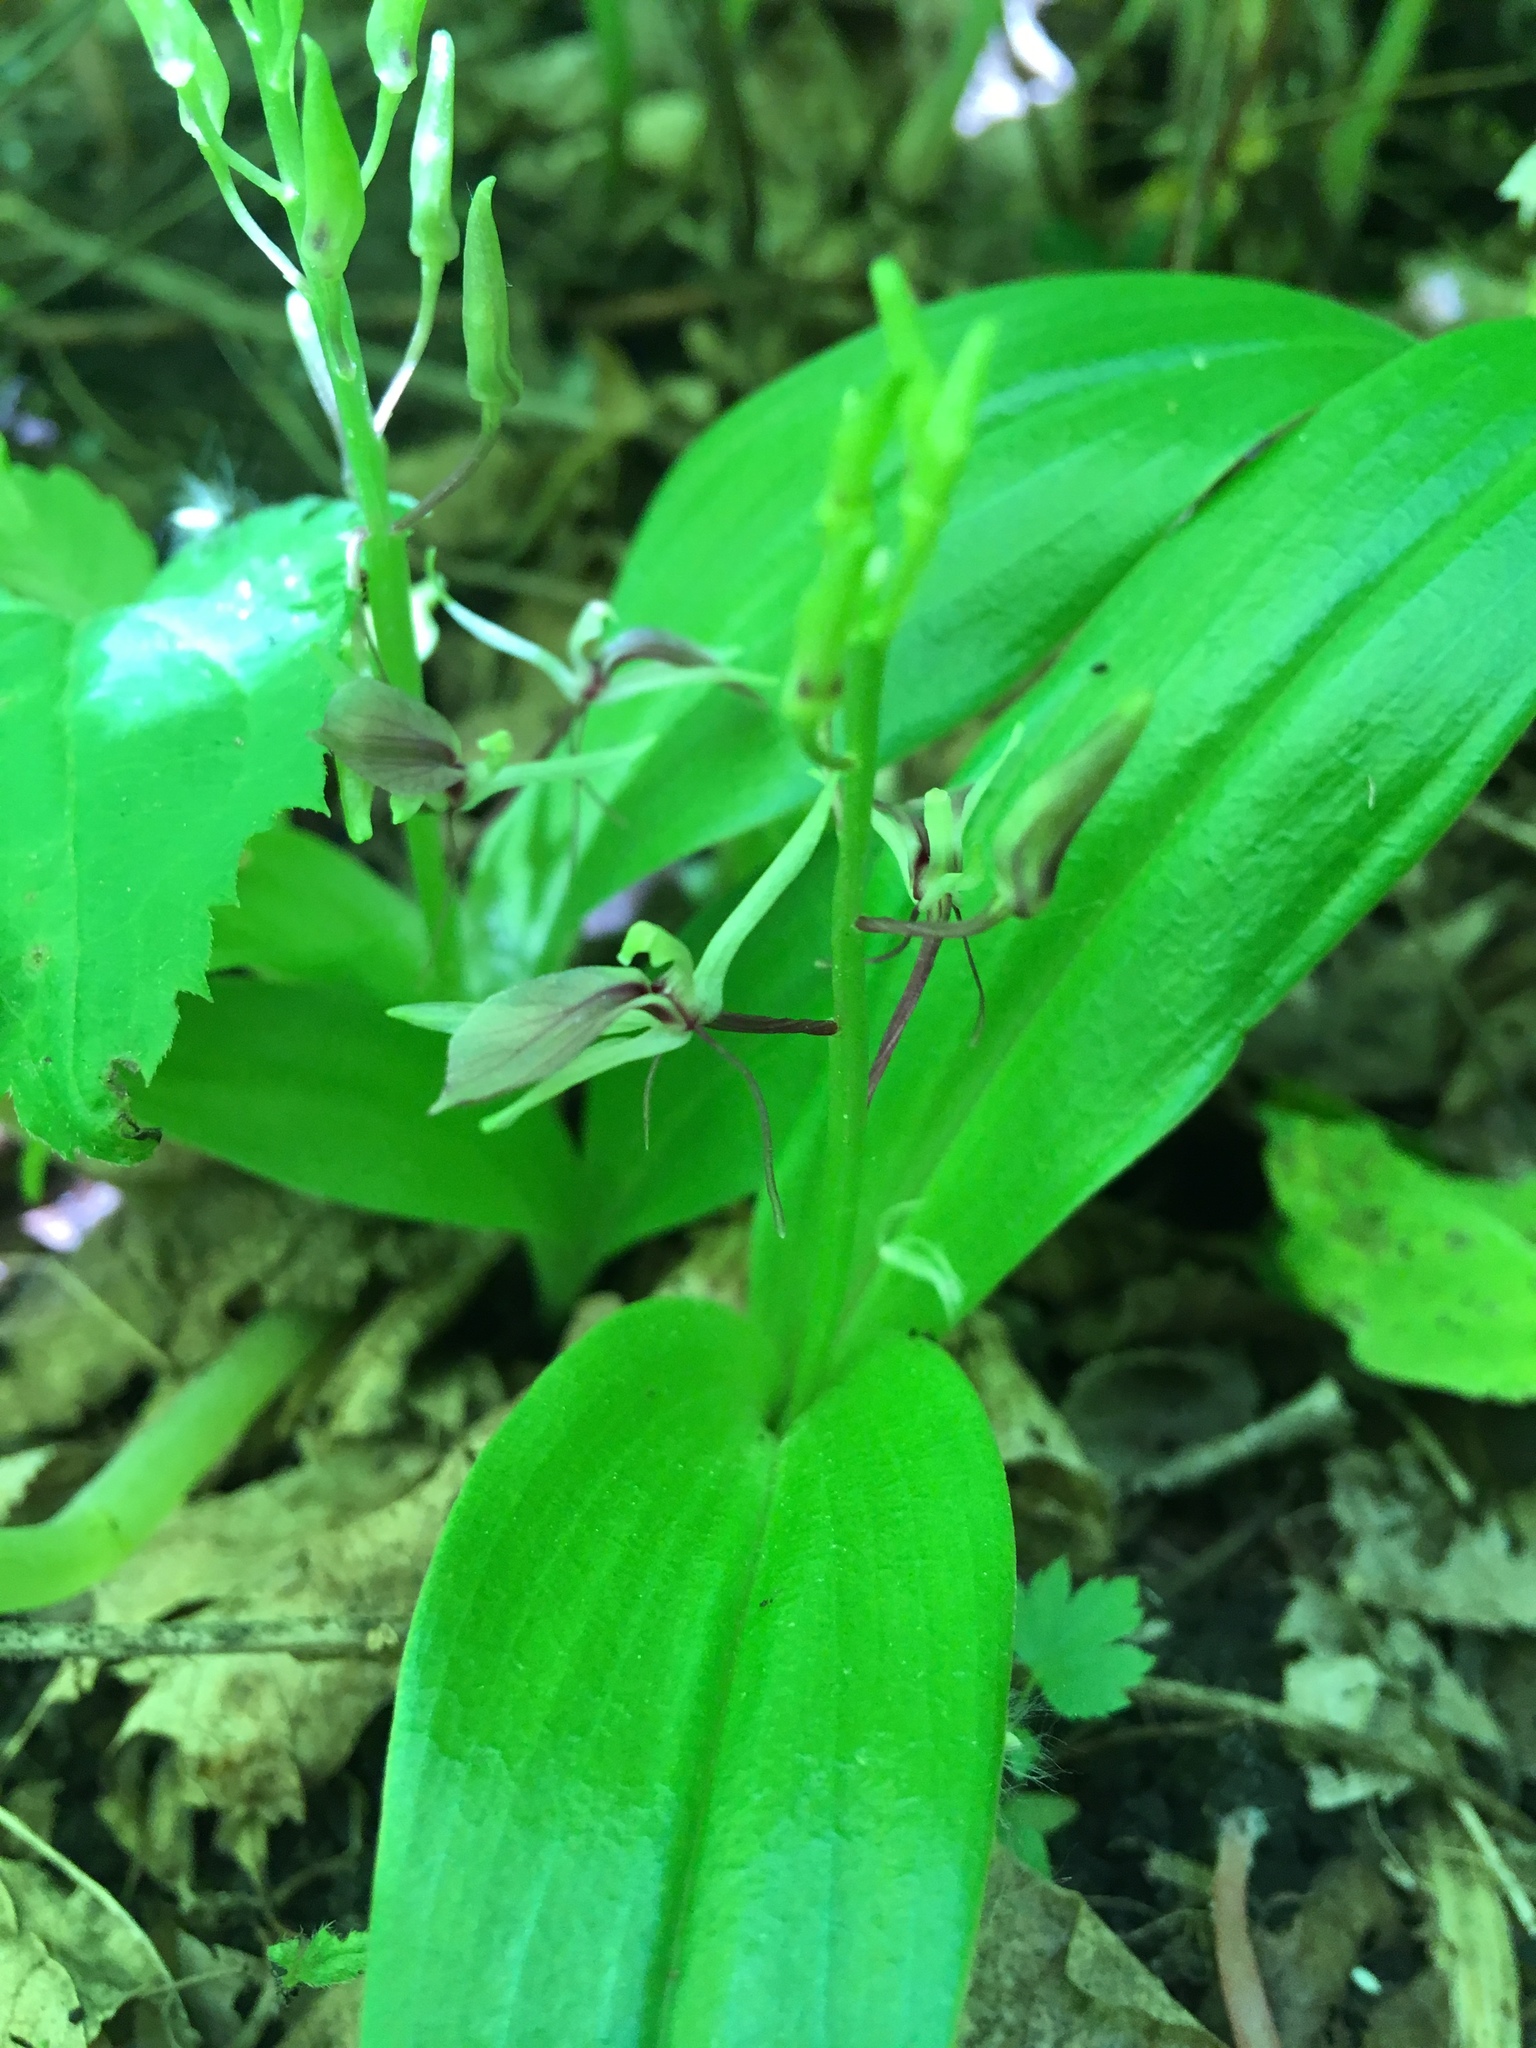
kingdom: Plantae
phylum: Tracheophyta
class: Liliopsida
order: Asparagales
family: Orchidaceae
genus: Liparis
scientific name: Liparis liliifolia
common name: Brown wide-lip orchid
